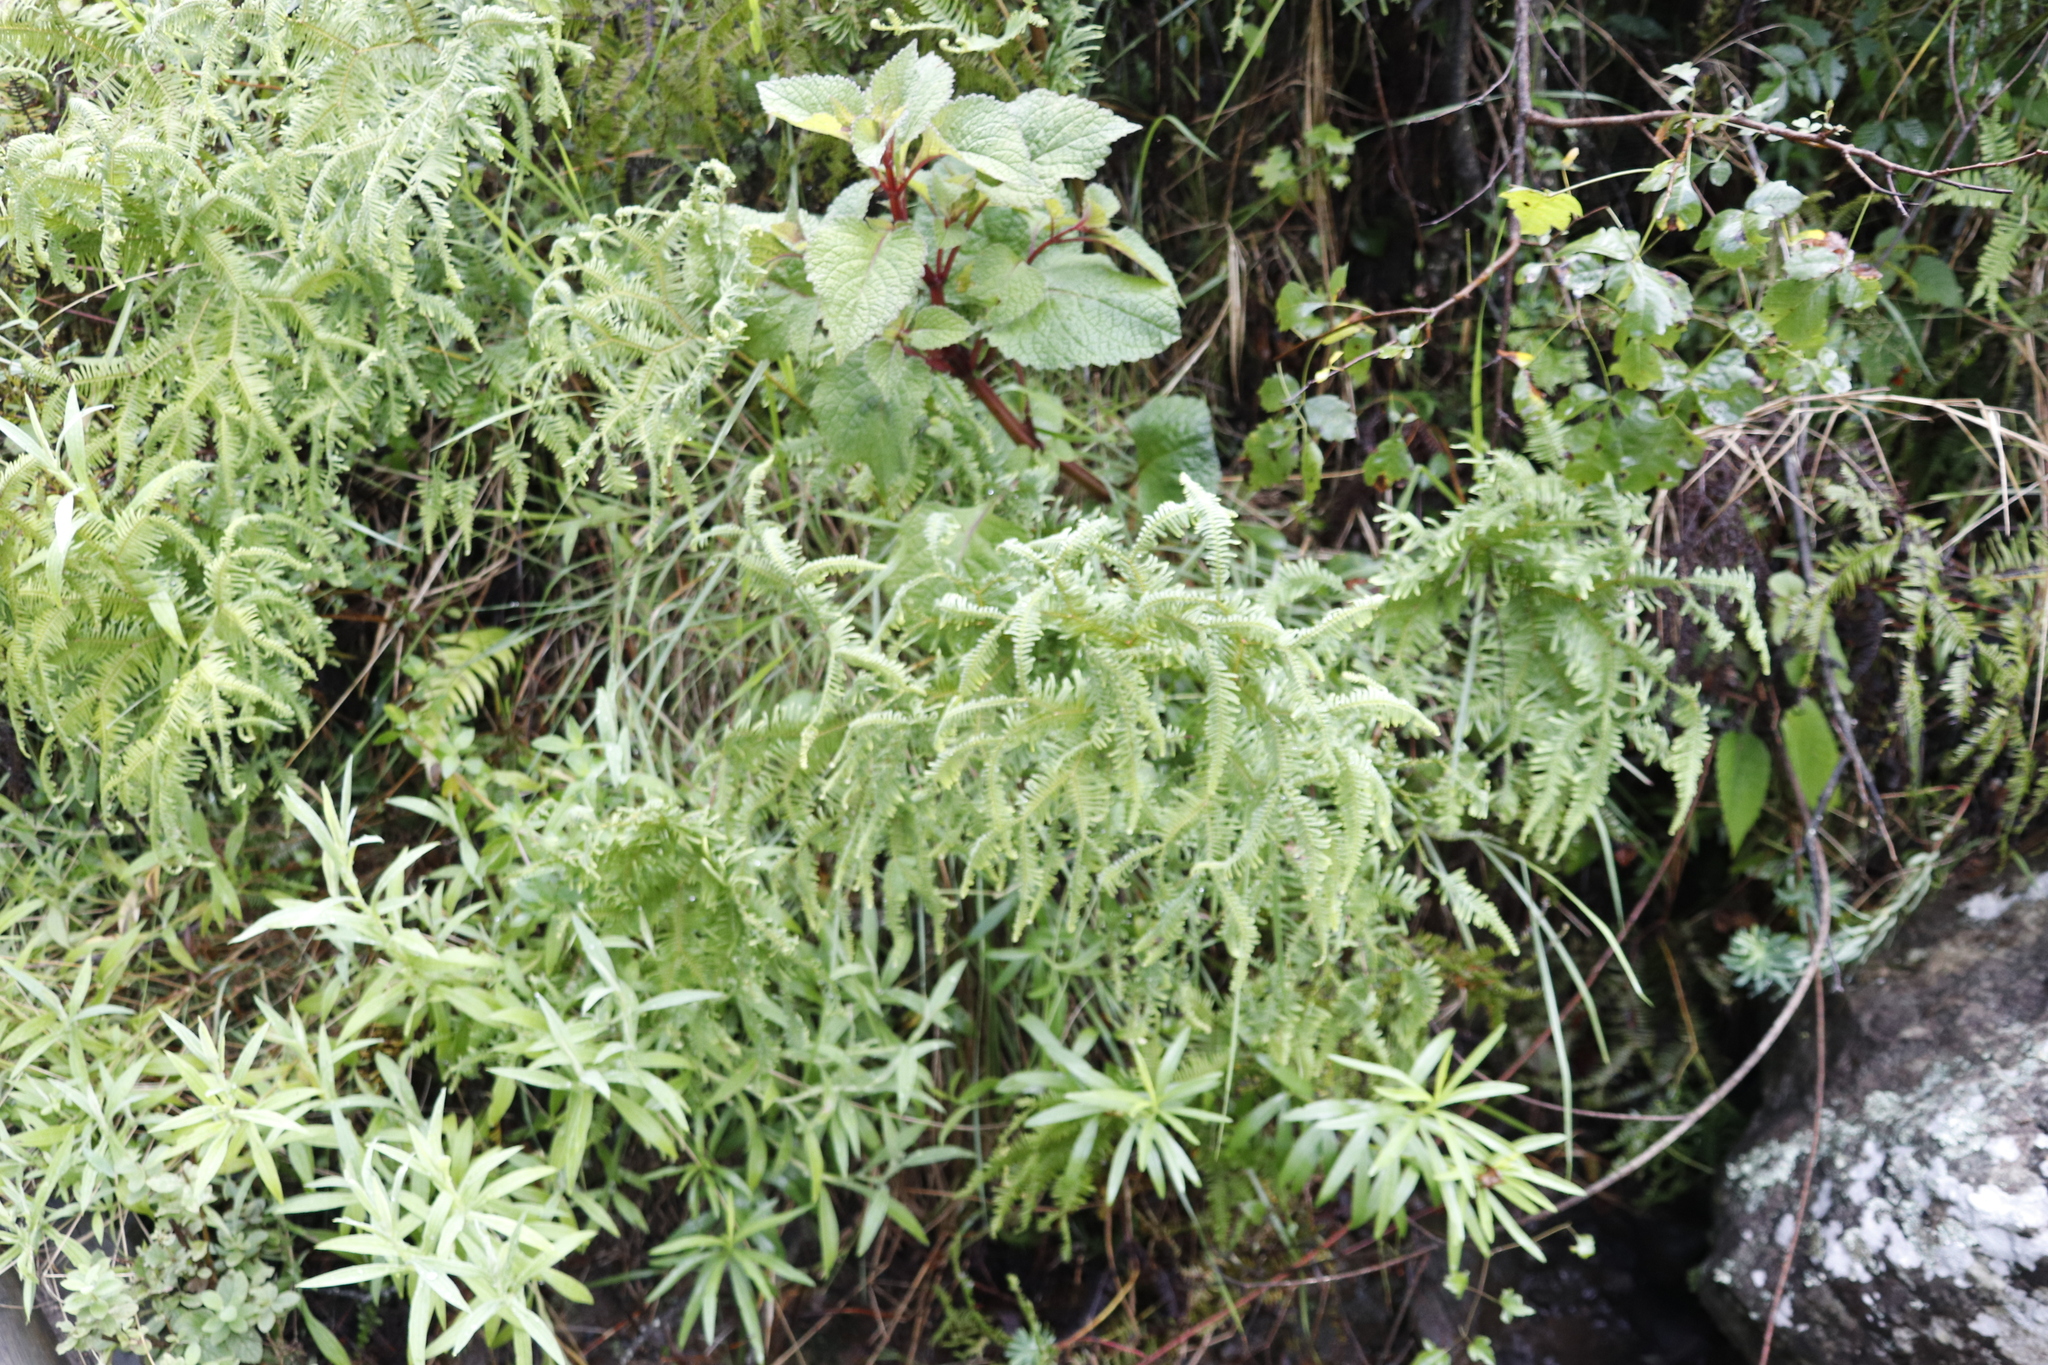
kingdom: Plantae
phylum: Tracheophyta
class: Polypodiopsida
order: Gleicheniales
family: Gleicheniaceae
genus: Sticherus
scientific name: Sticherus umbraculifer
